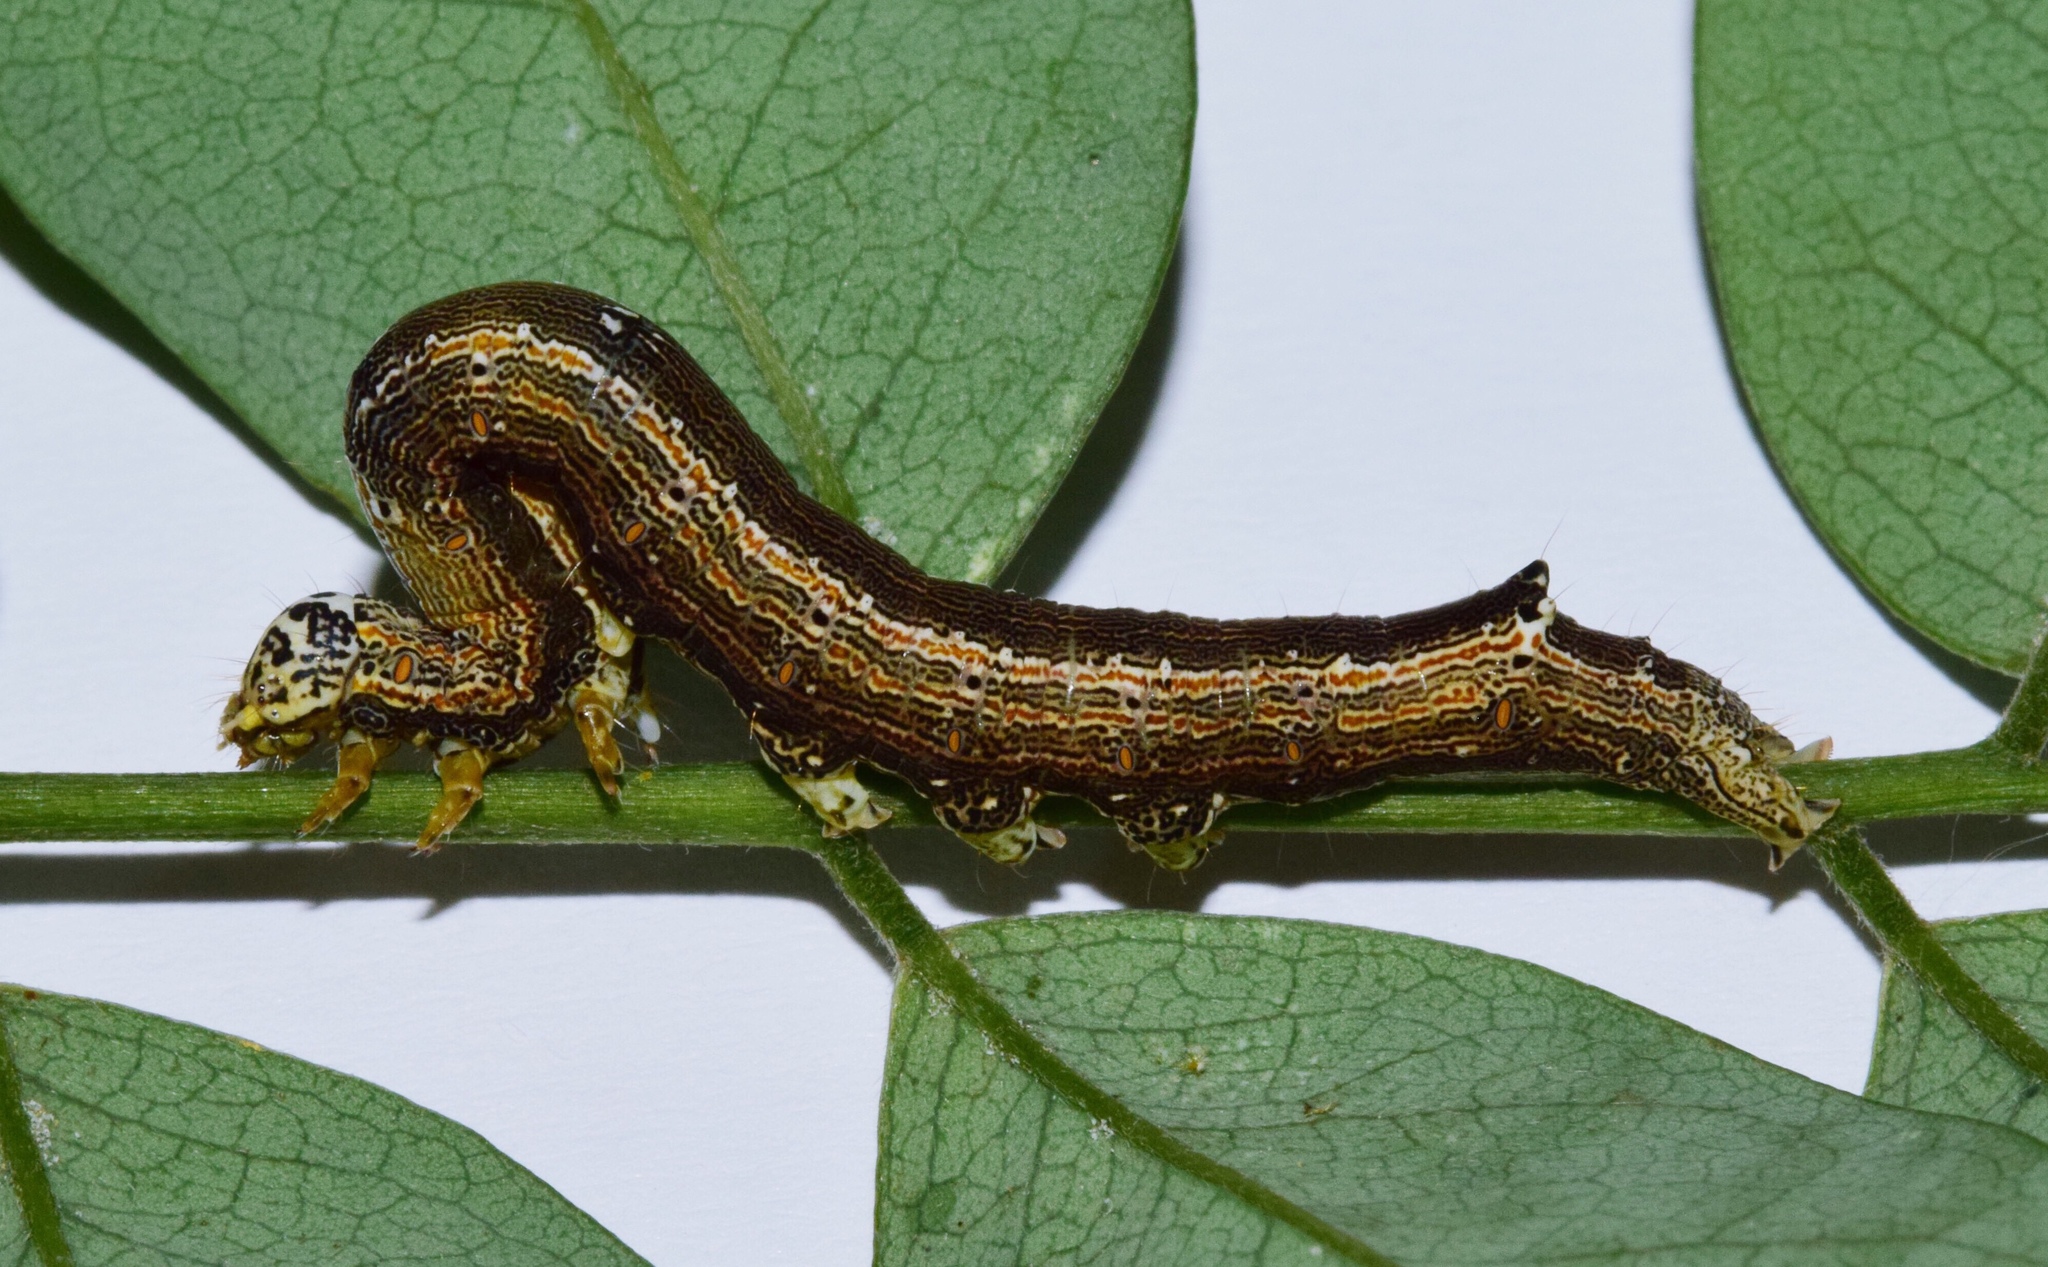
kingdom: Animalia
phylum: Arthropoda
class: Insecta
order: Lepidoptera
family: Erebidae
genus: Achaea
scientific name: Achaea indeterminata
